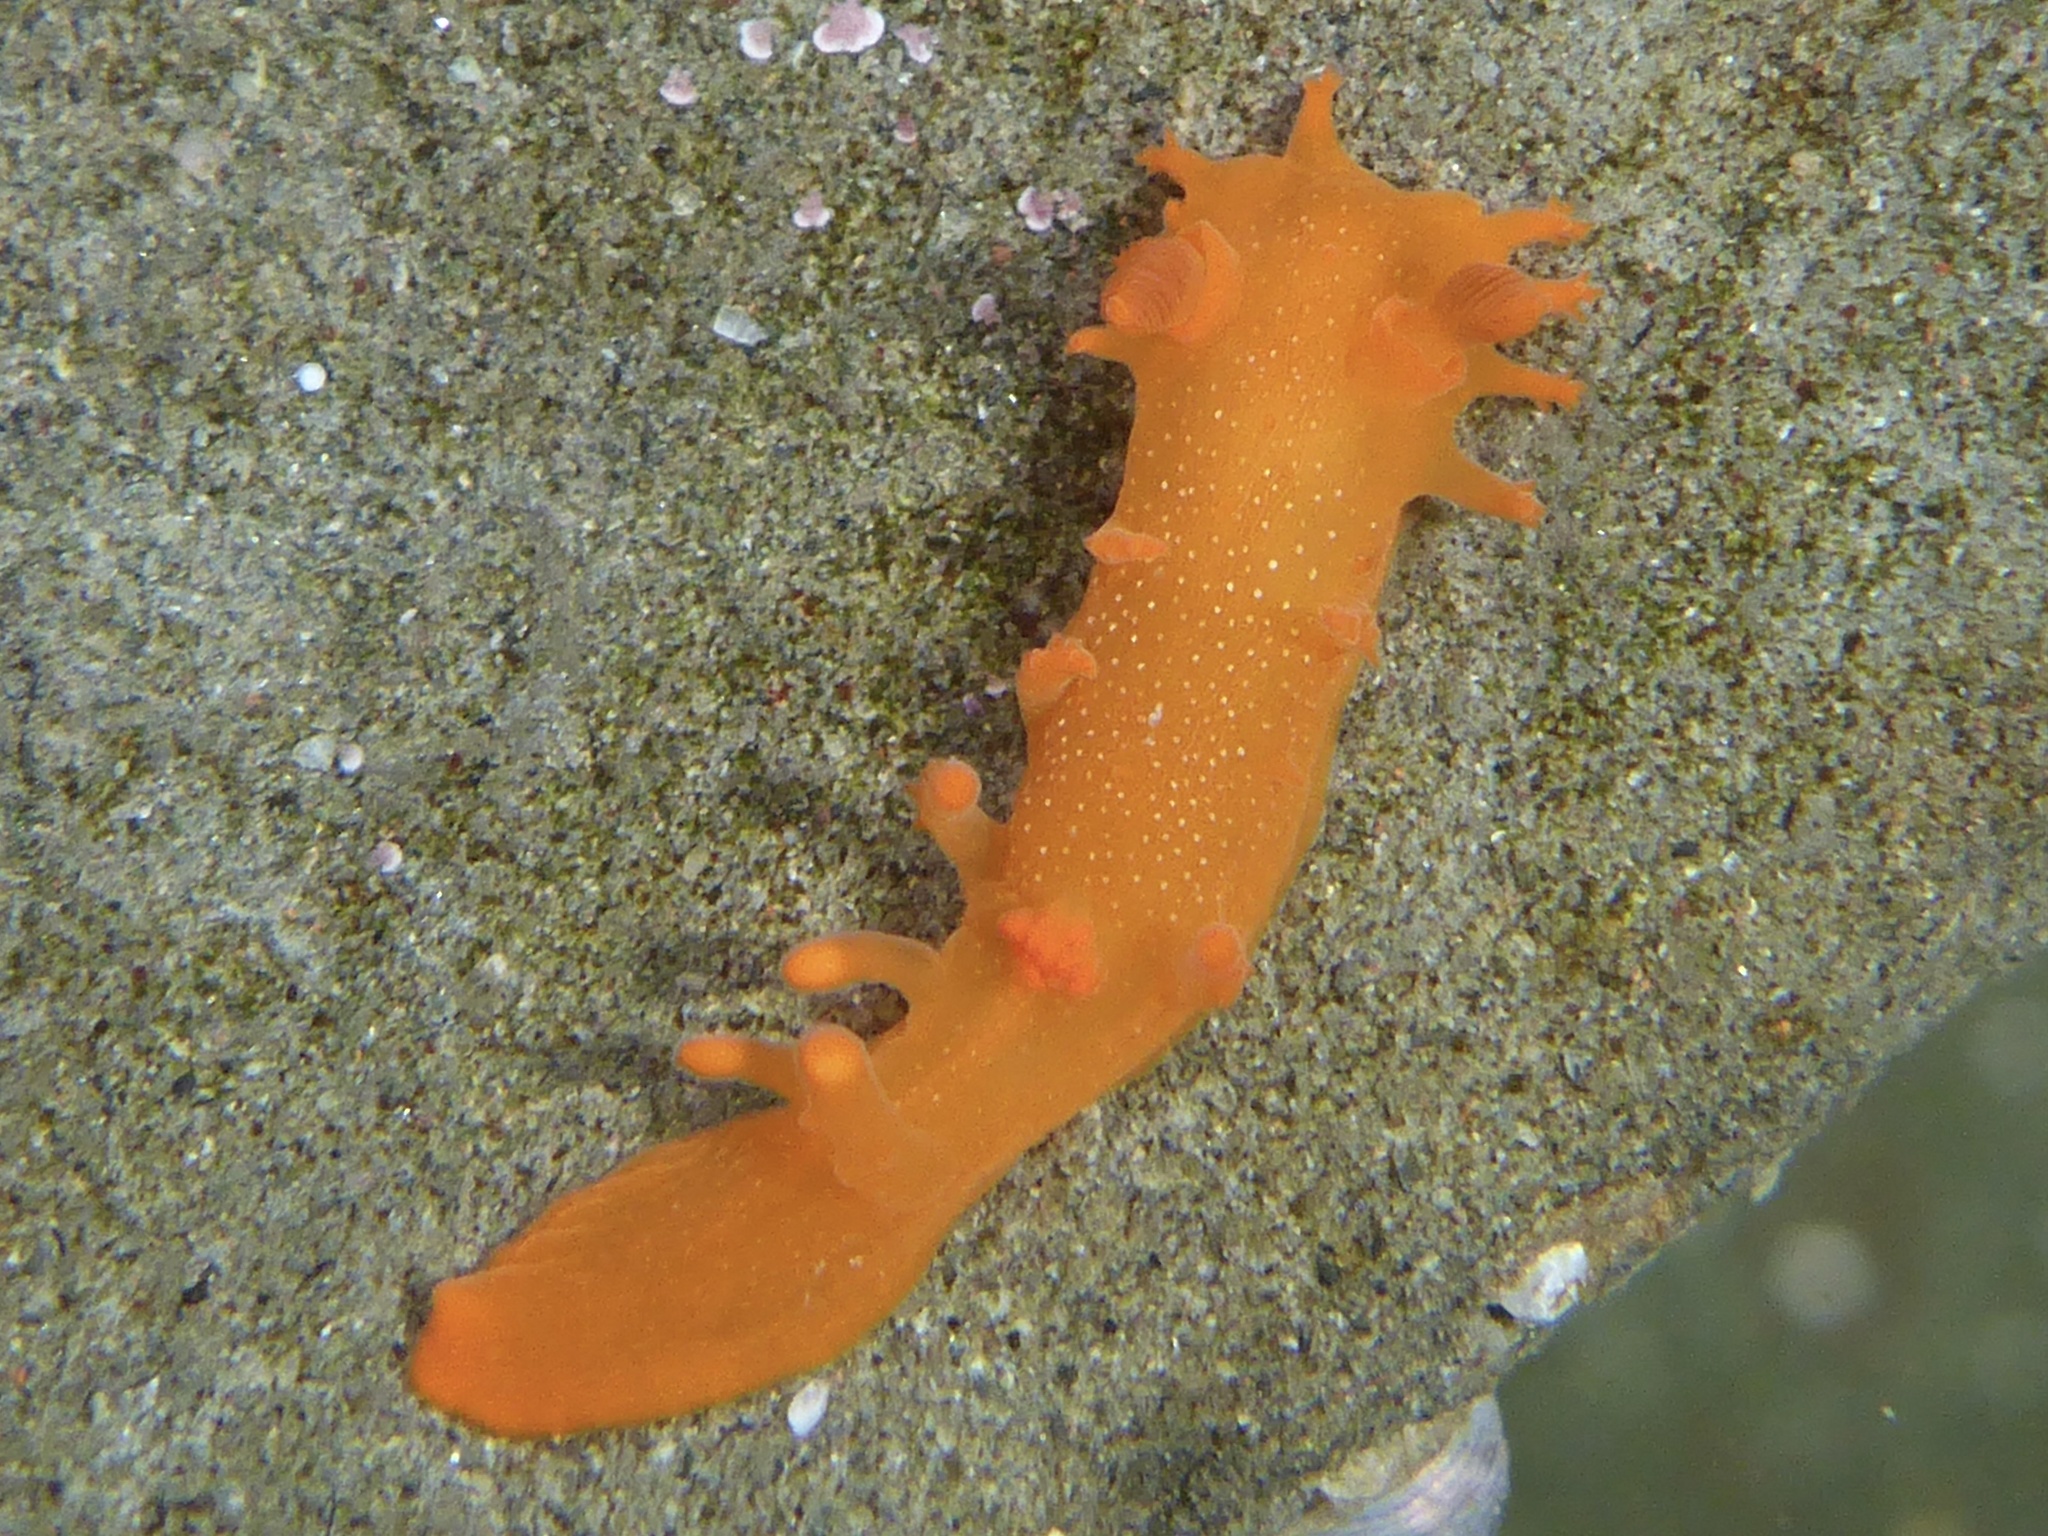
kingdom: Animalia
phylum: Mollusca
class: Gastropoda
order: Nudibranchia
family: Polyceridae
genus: Triopha
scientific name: Triopha maculata
